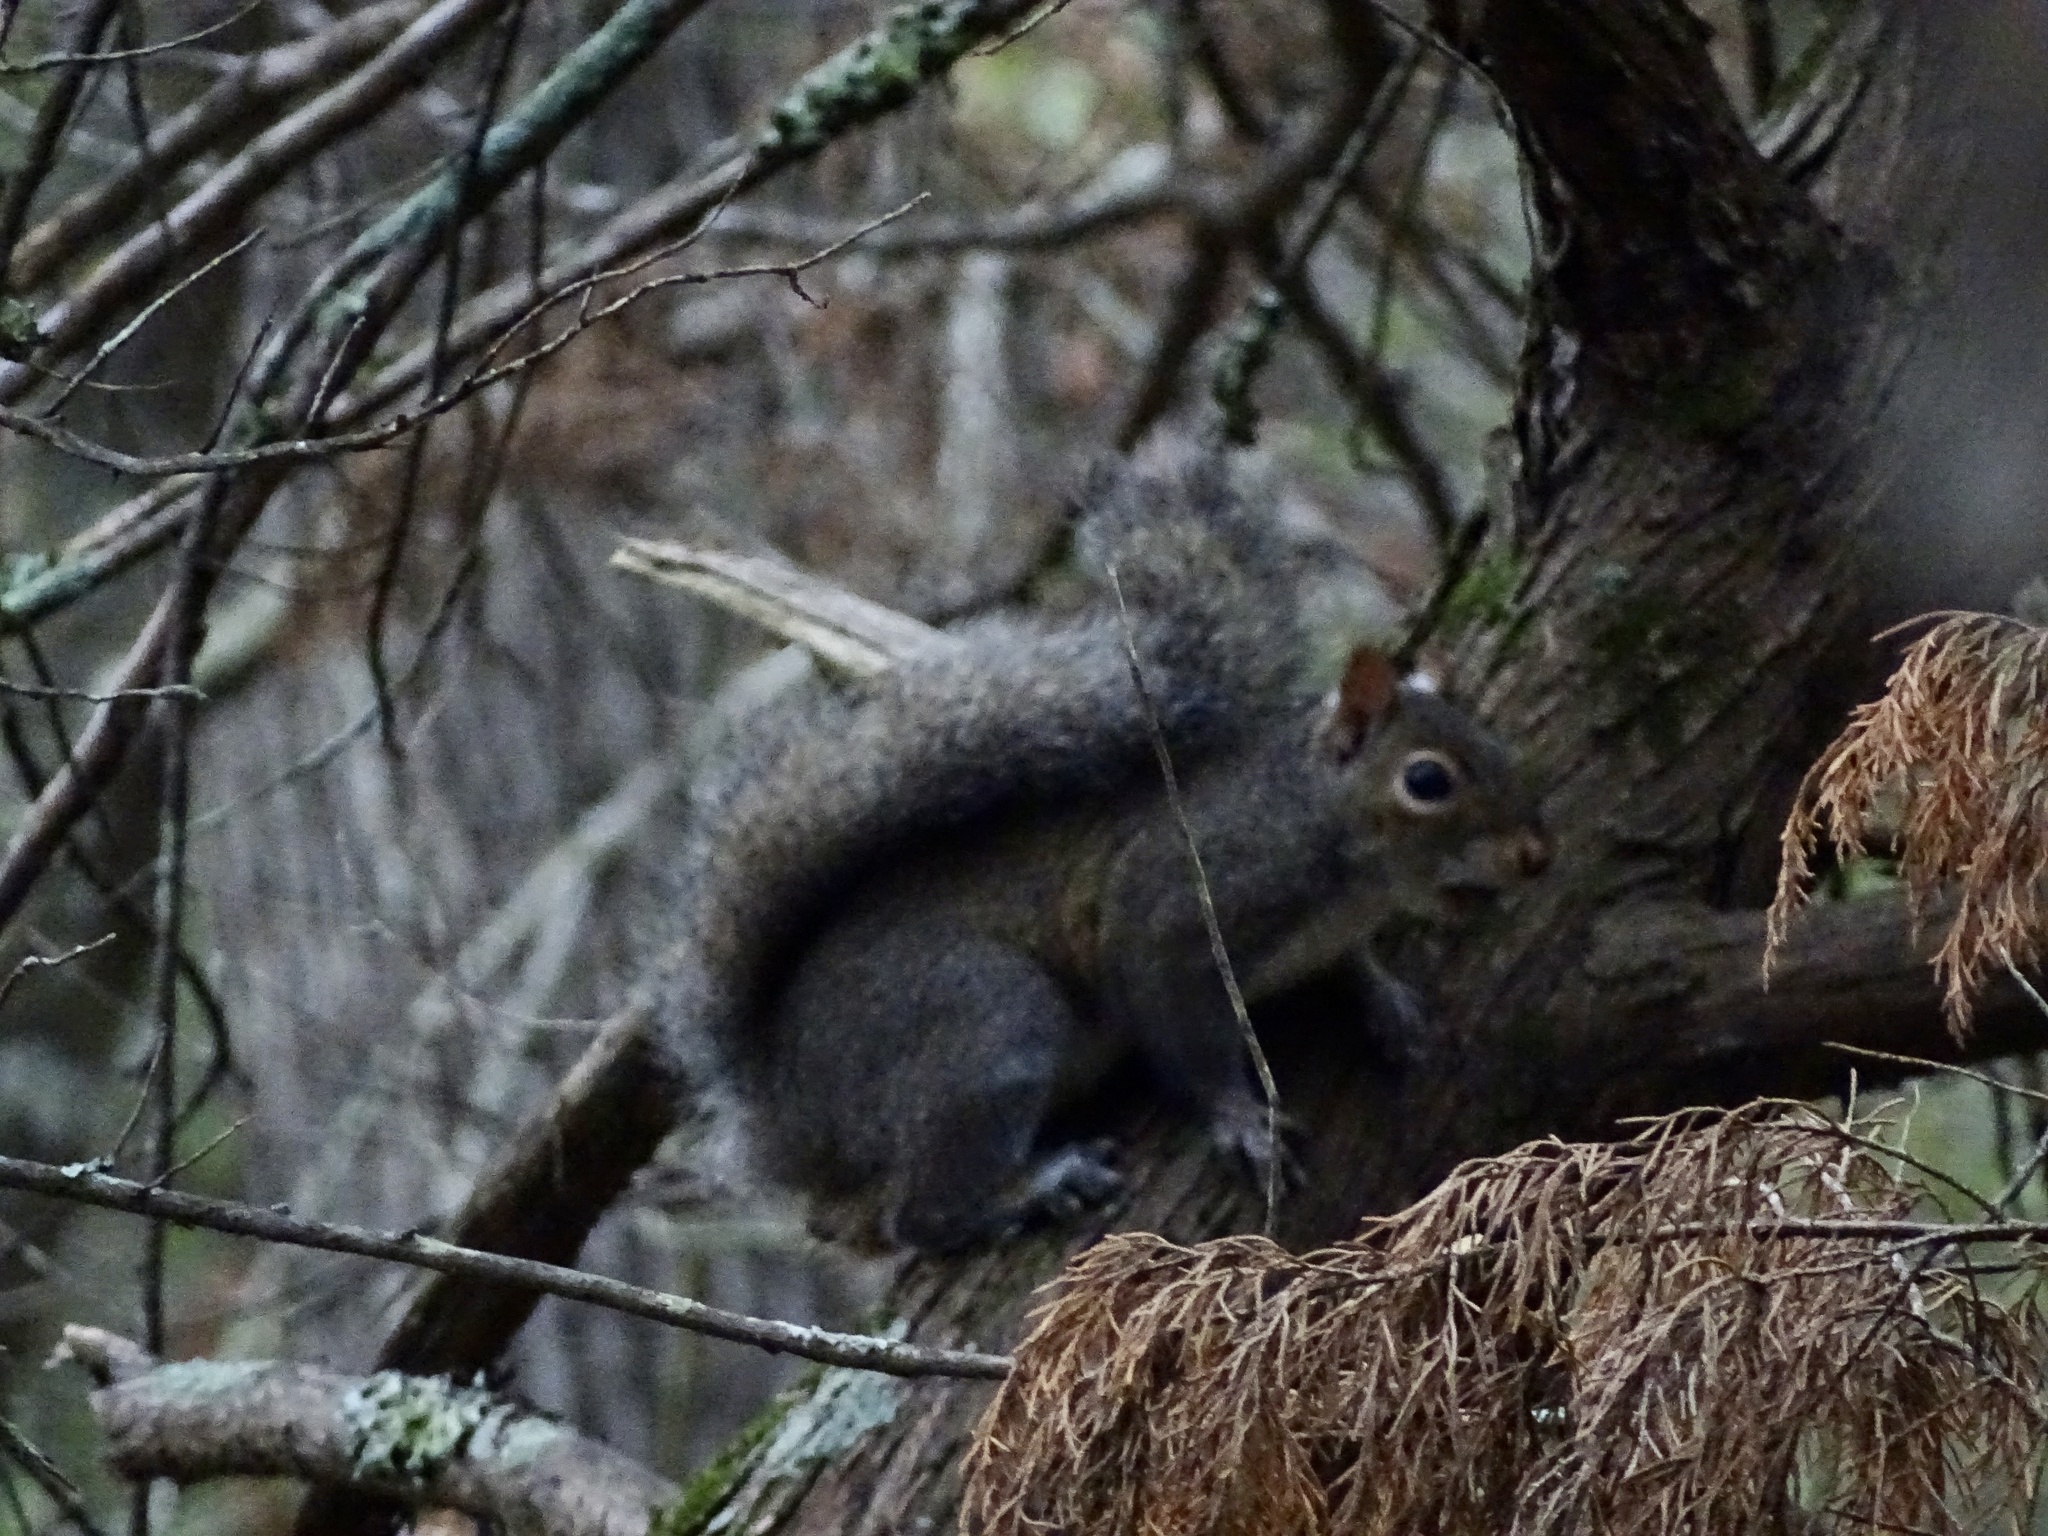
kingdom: Animalia
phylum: Chordata
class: Mammalia
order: Rodentia
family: Sciuridae
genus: Sciurus
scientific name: Sciurus carolinensis
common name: Eastern gray squirrel
